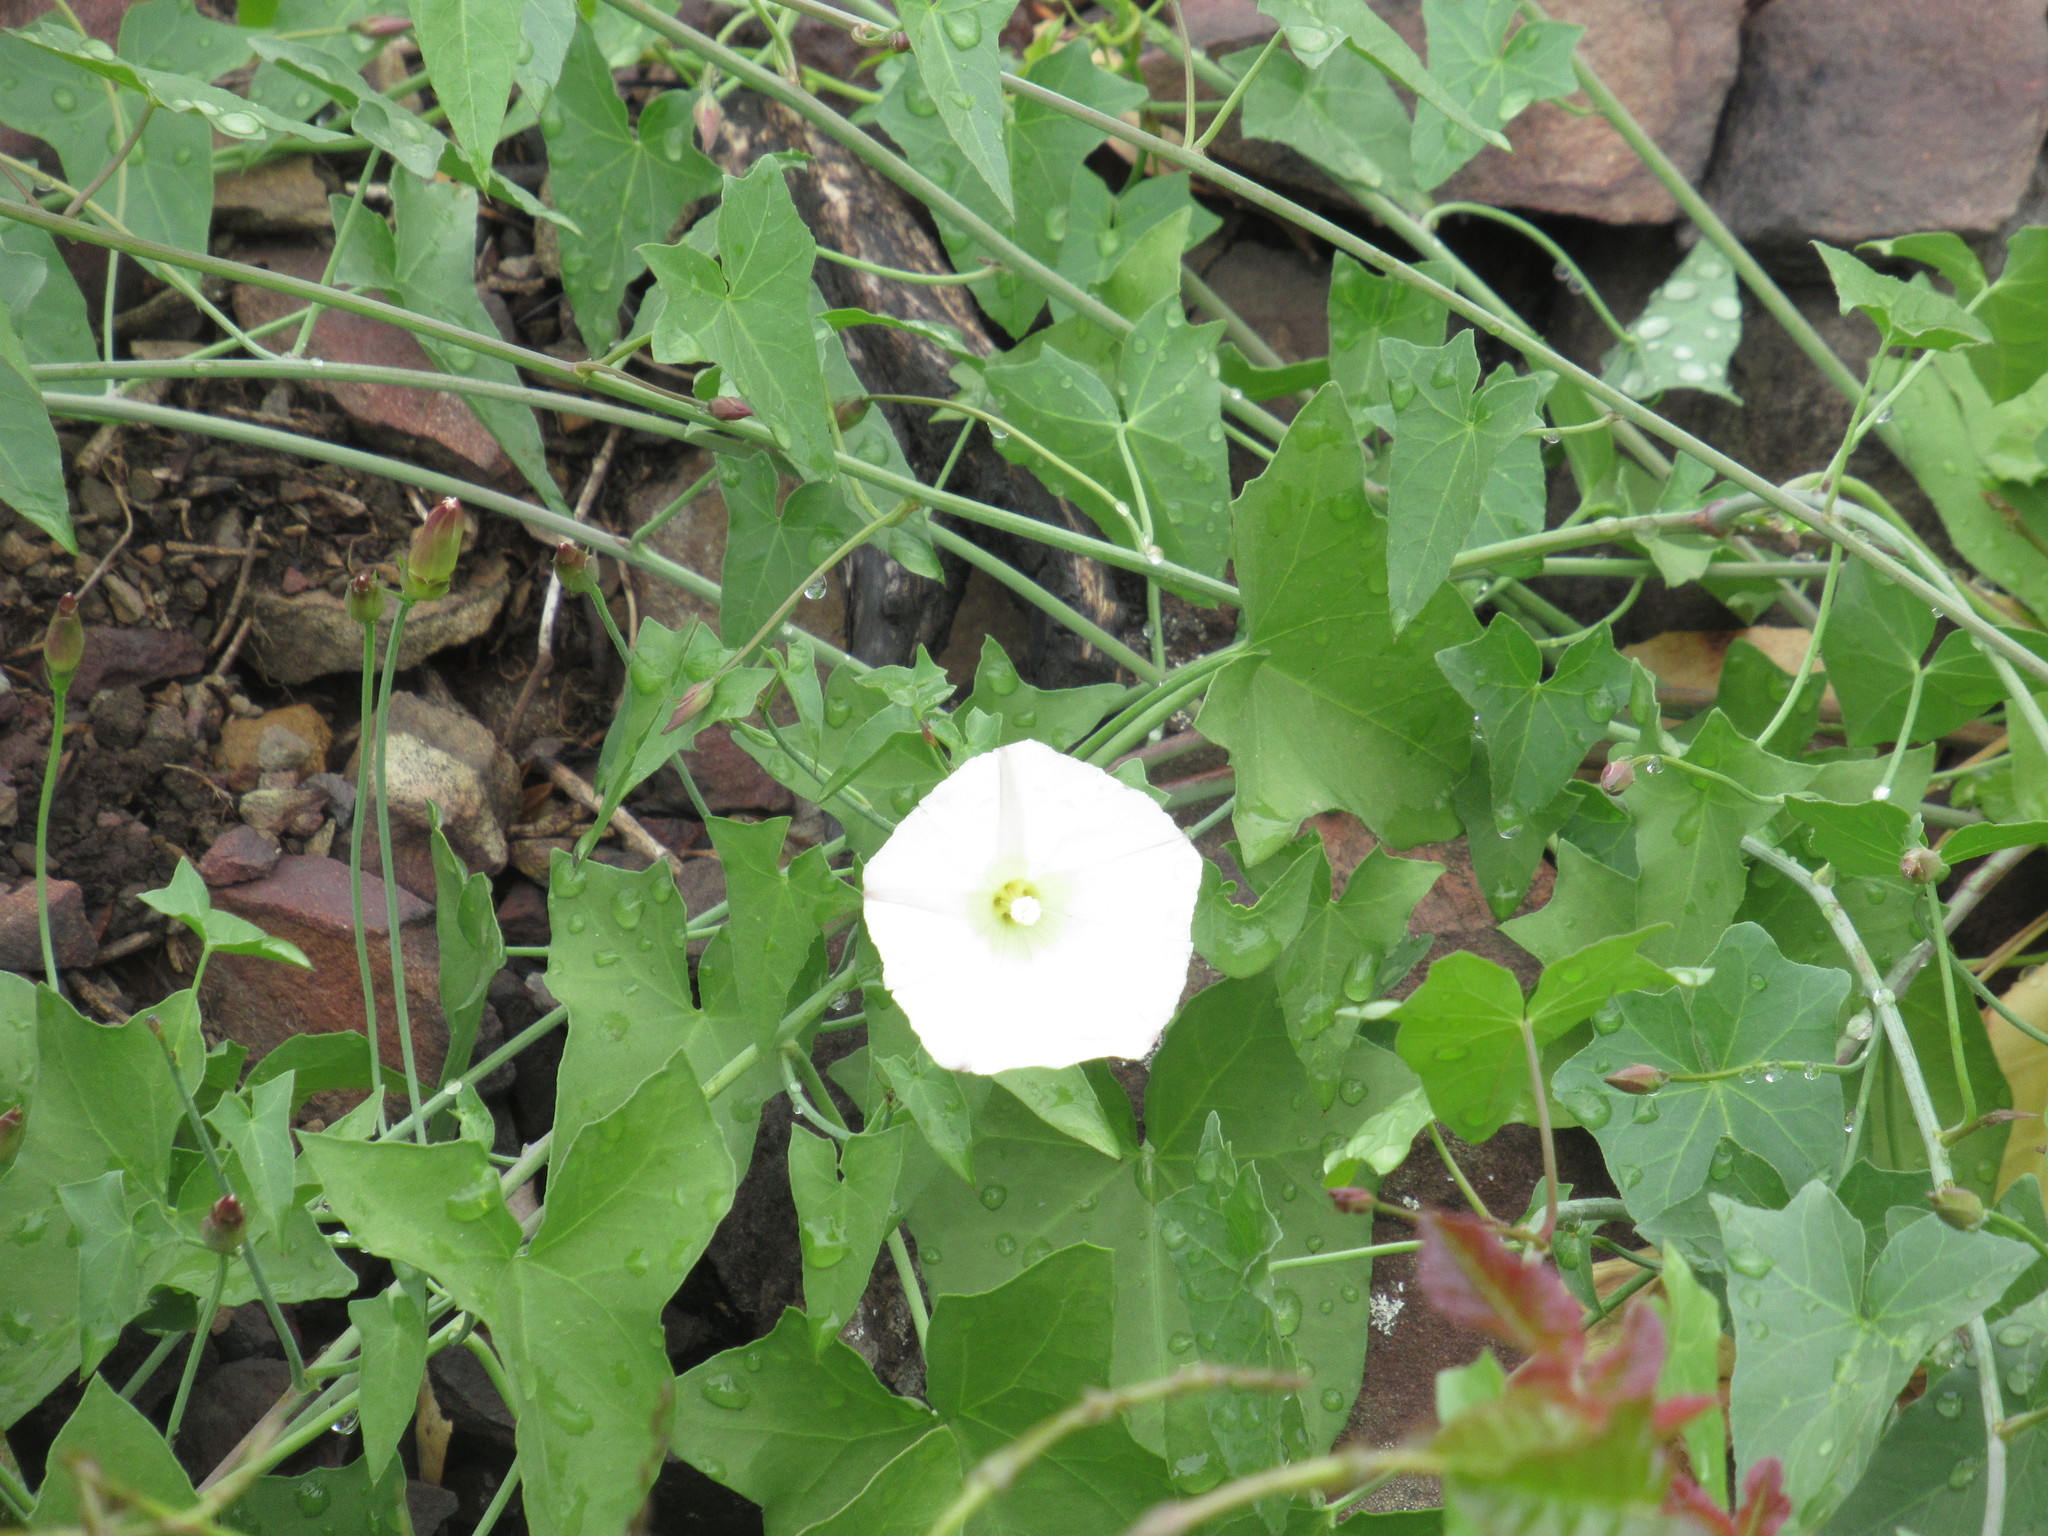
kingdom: Plantae
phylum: Tracheophyta
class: Magnoliopsida
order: Solanales
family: Convolvulaceae
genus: Calystegia
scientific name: Calystegia purpurata
